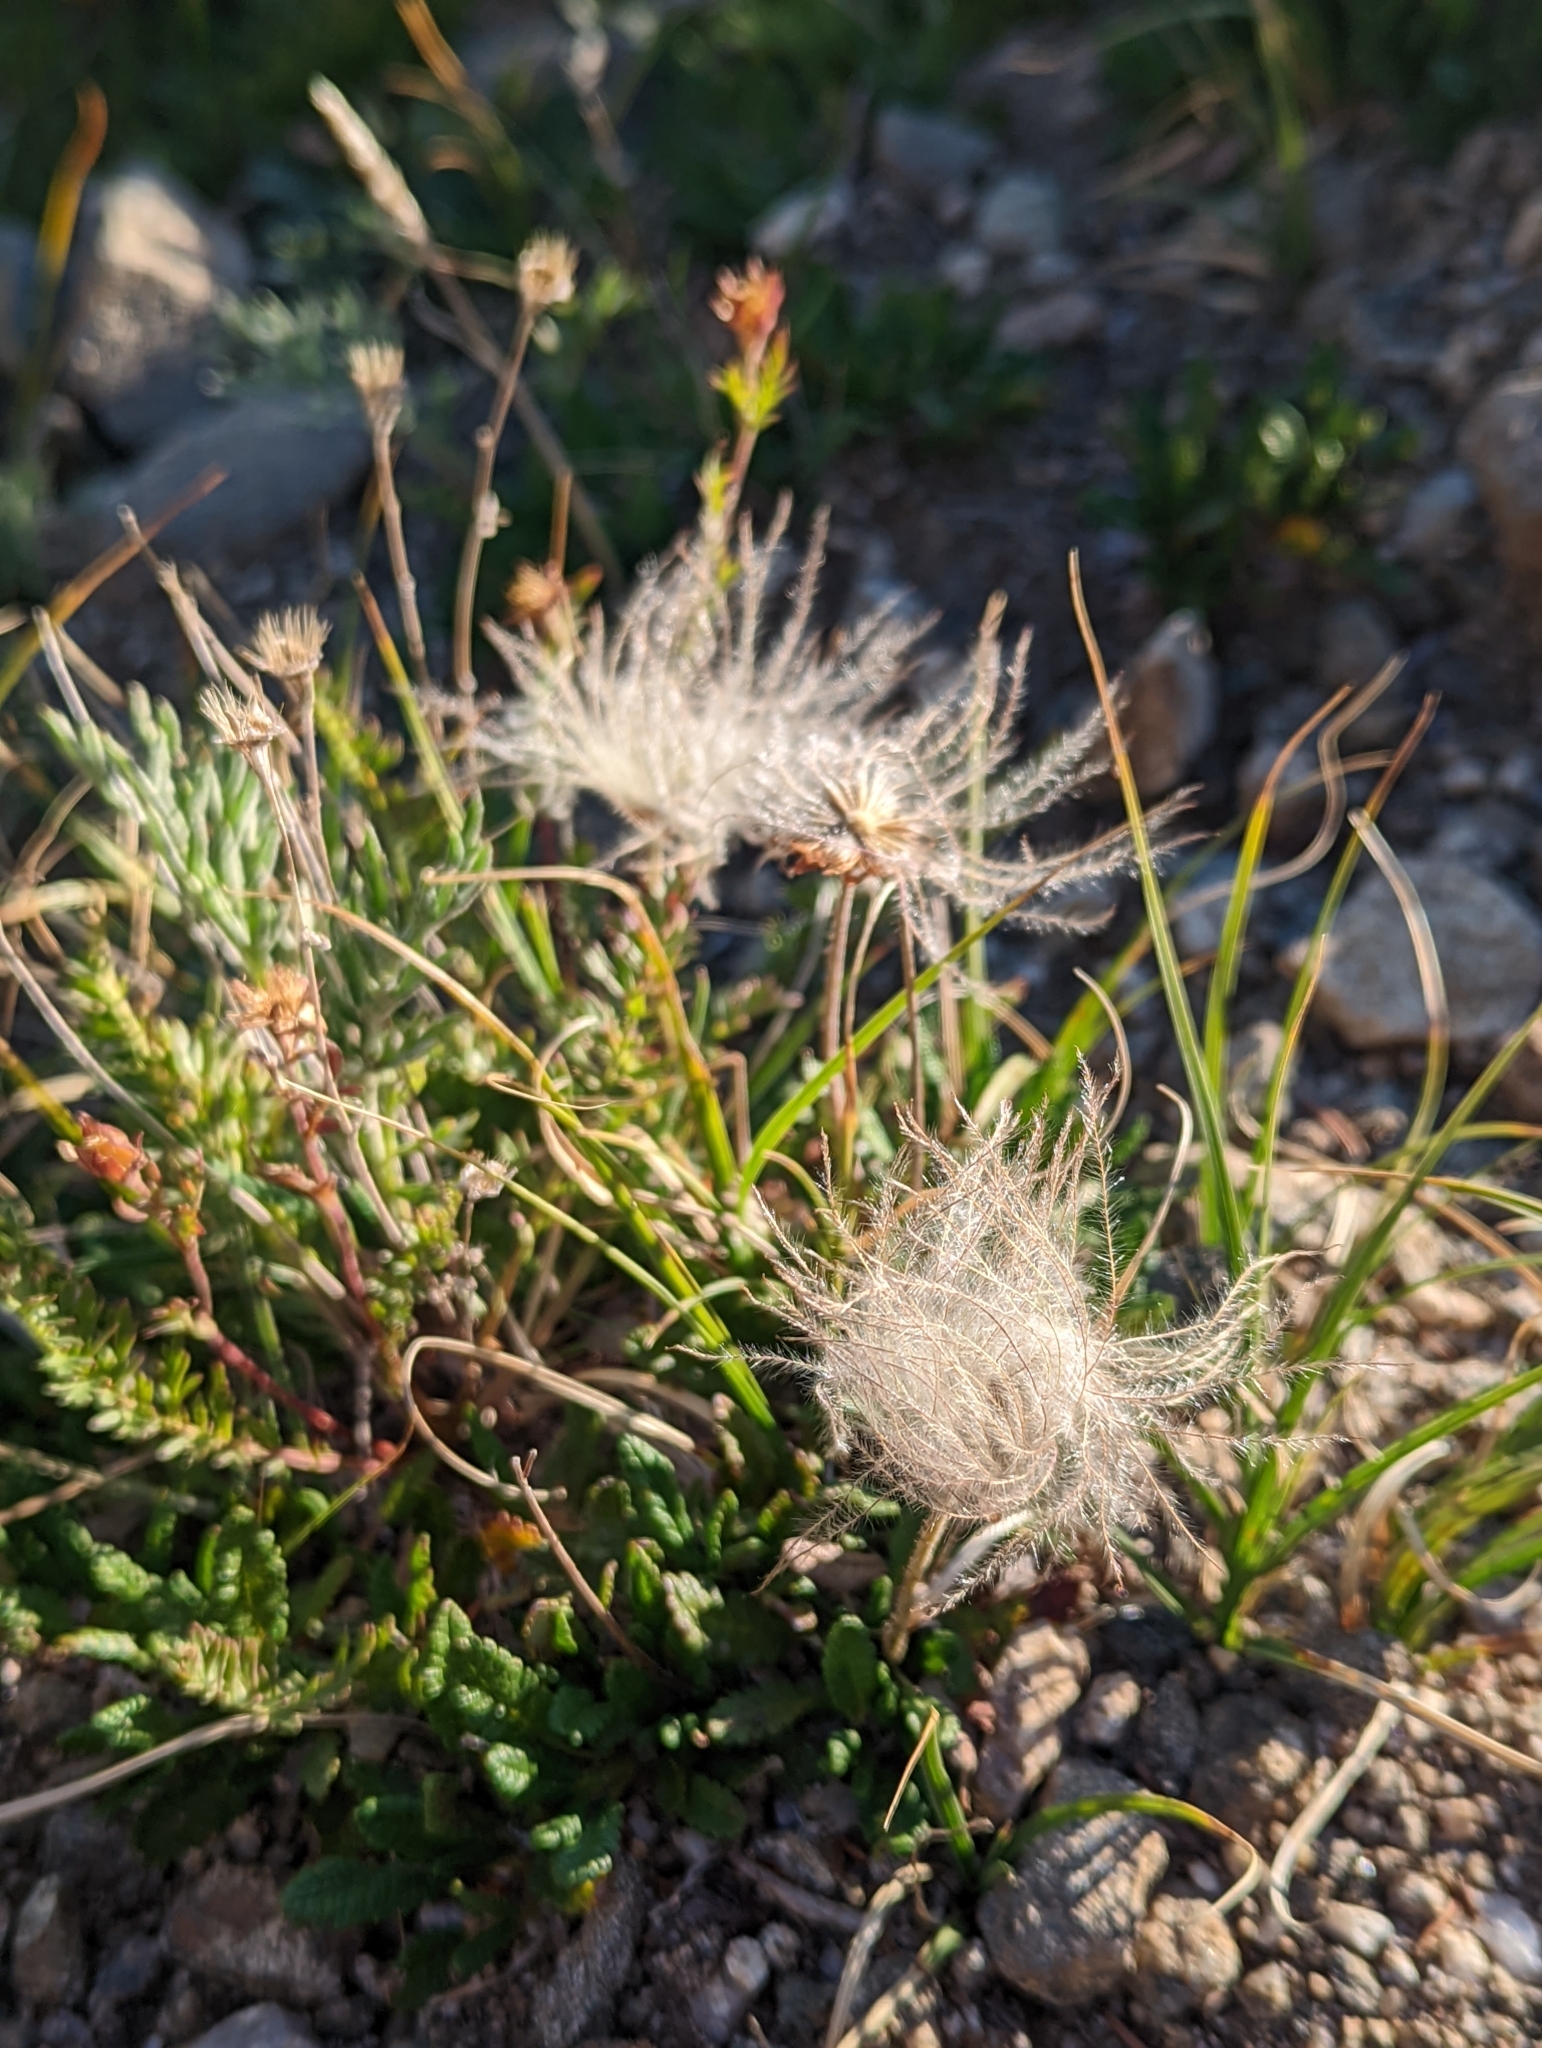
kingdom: Plantae
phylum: Tracheophyta
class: Magnoliopsida
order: Rosales
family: Rosaceae
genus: Dryas
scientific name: Dryas octopetala
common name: Eight-petal mountain-avens
